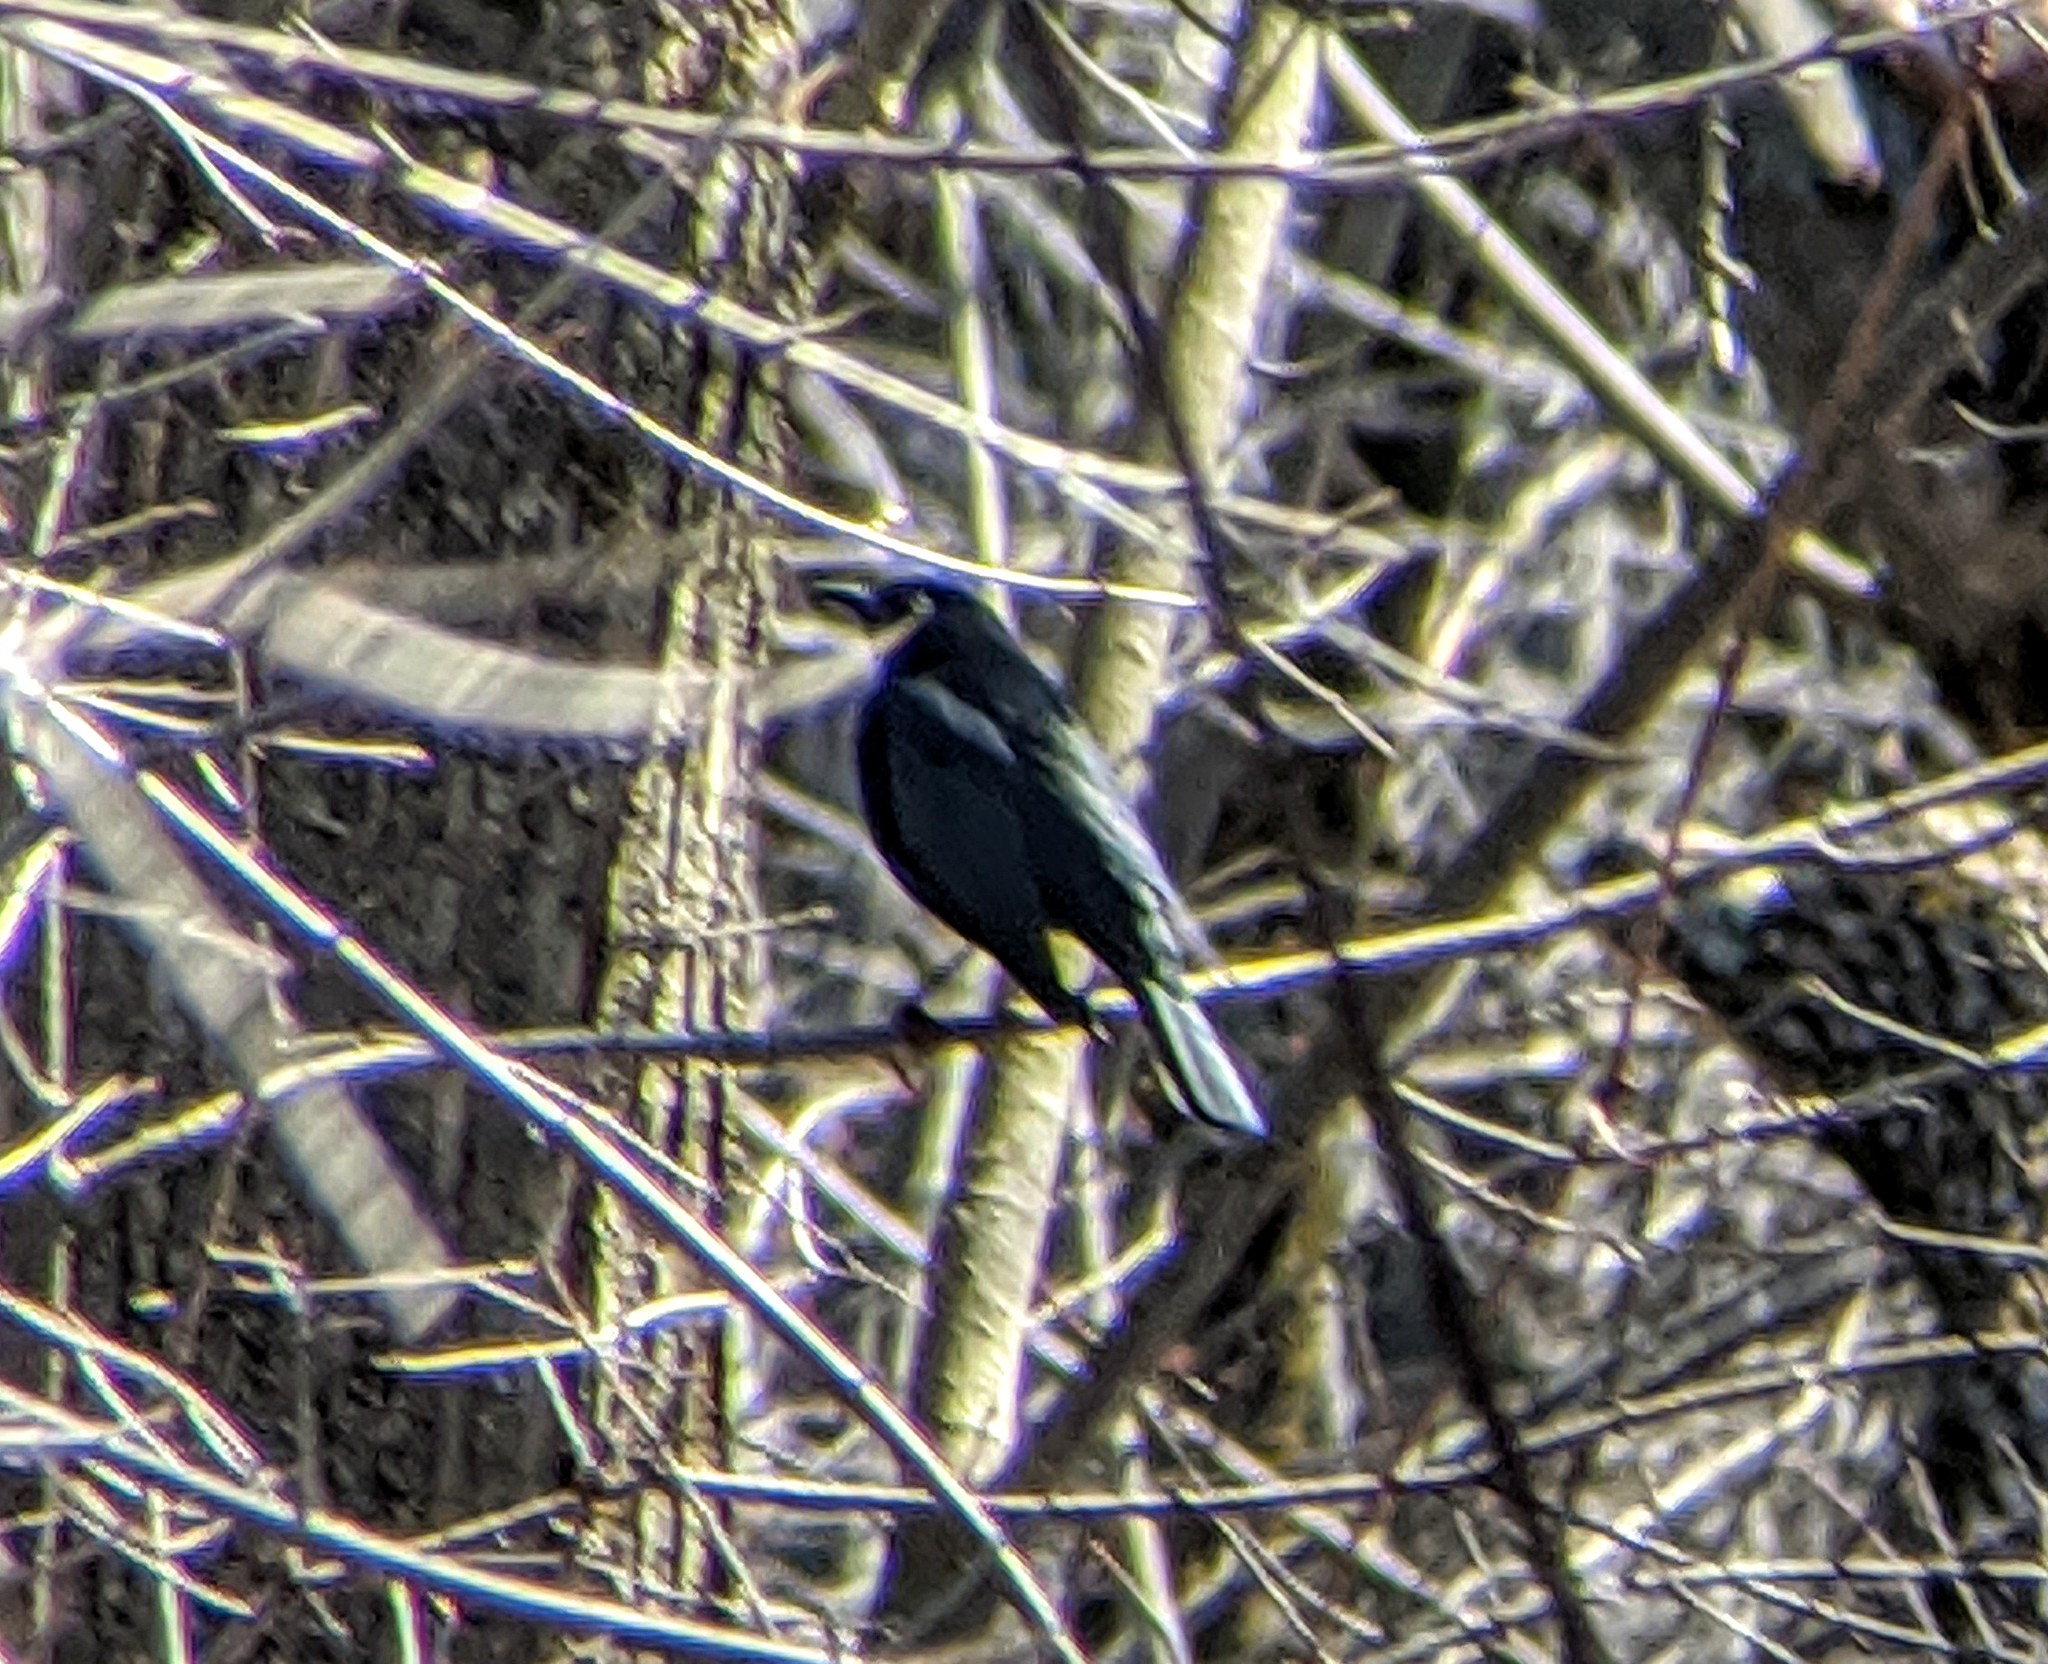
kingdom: Animalia
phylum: Chordata
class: Aves
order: Passeriformes
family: Icteridae
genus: Euphagus
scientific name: Euphagus carolinus
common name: Rusty blackbird
